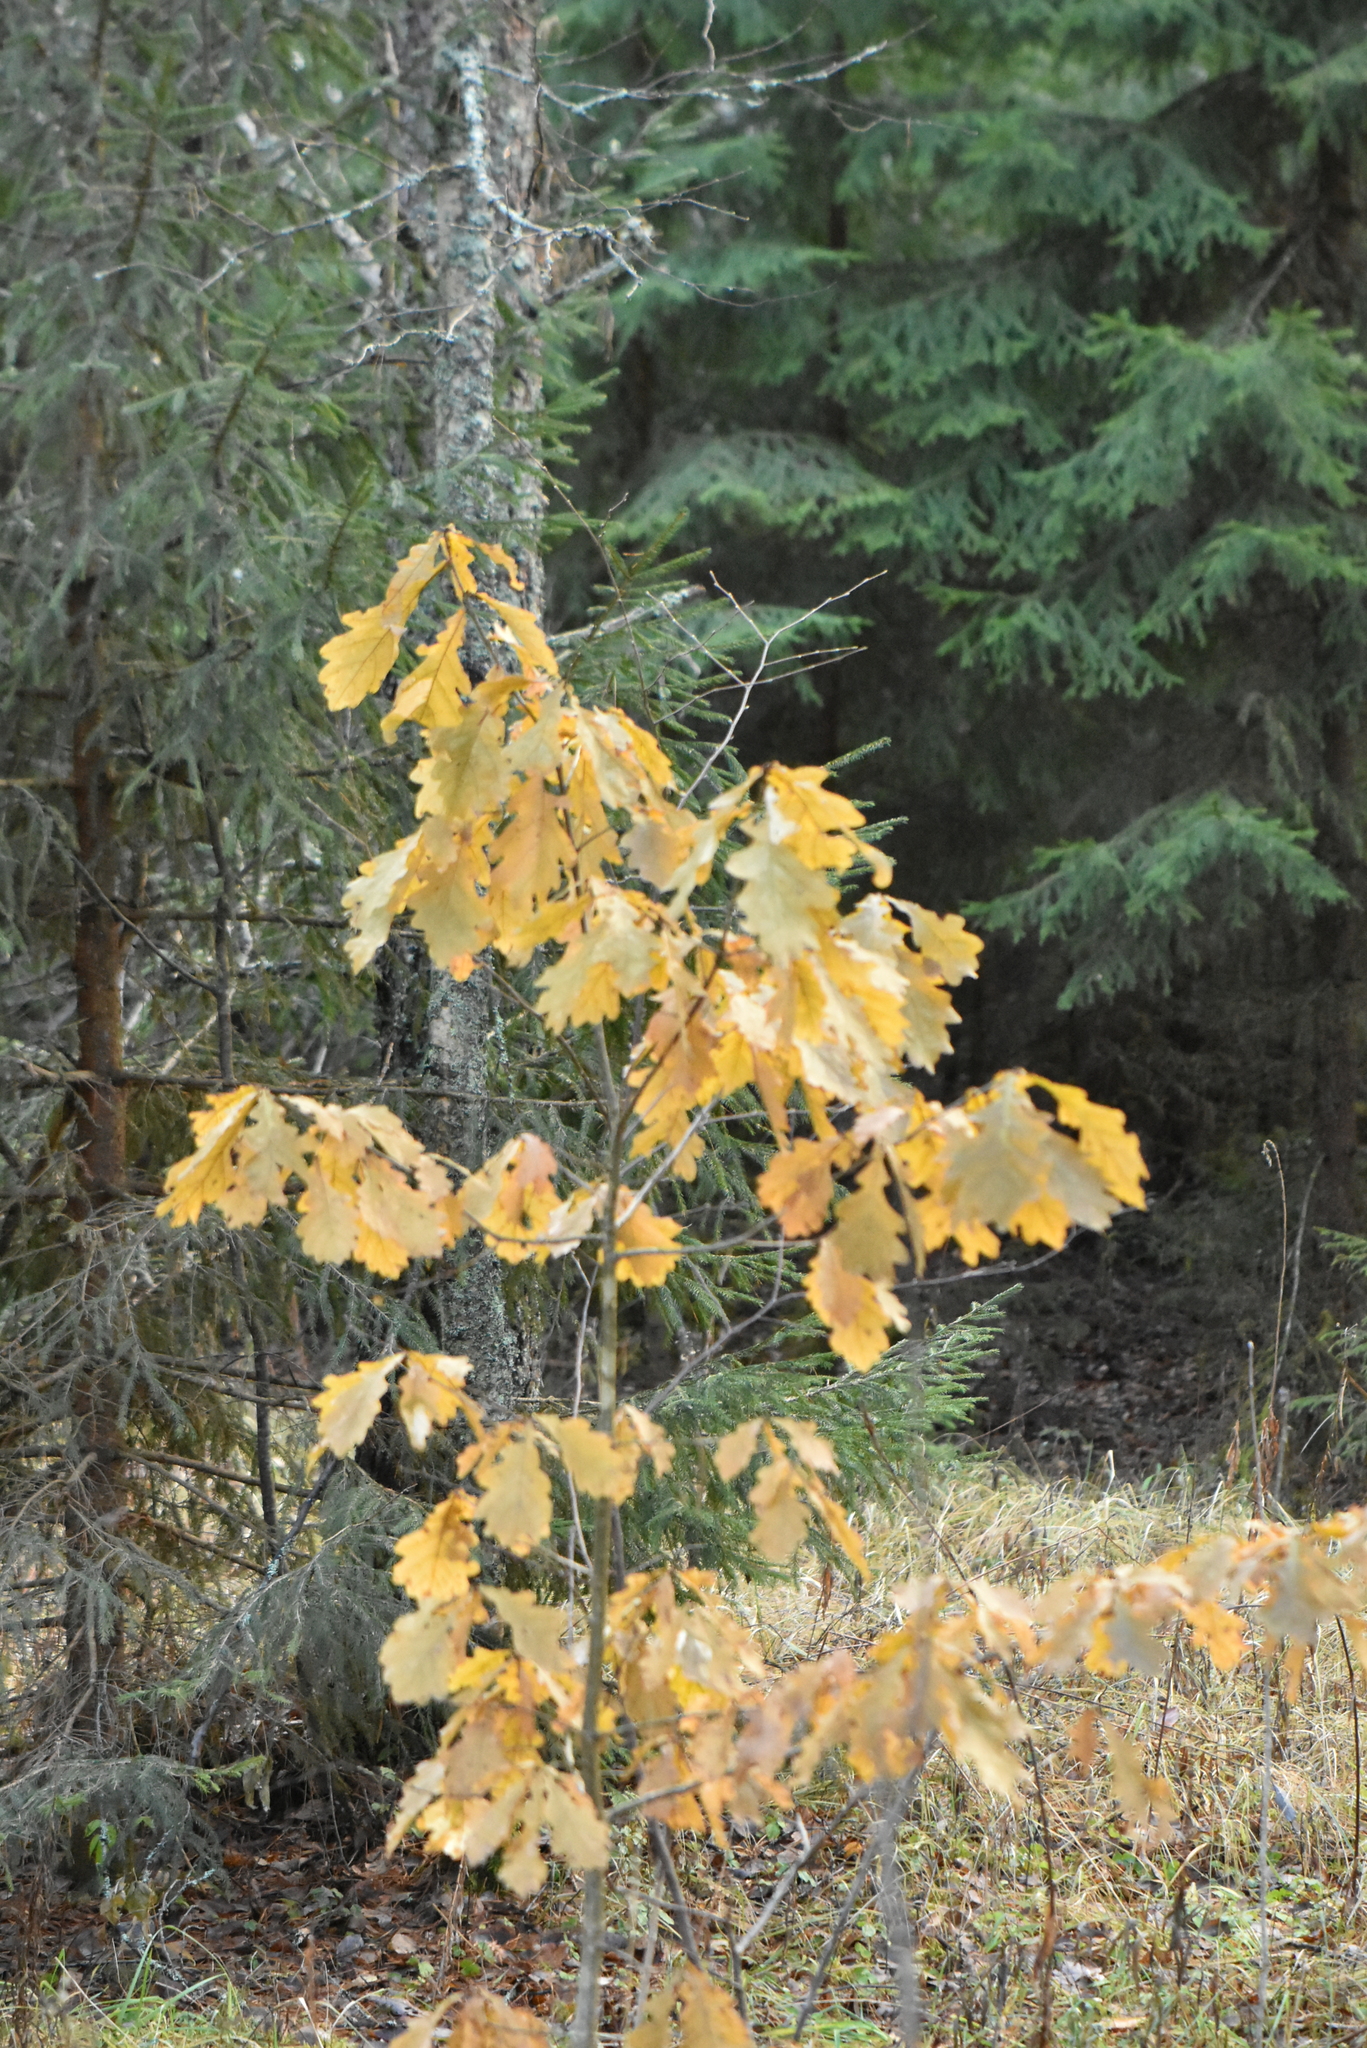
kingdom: Plantae
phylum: Tracheophyta
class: Magnoliopsida
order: Fagales
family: Fagaceae
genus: Quercus
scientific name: Quercus robur
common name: Pedunculate oak
